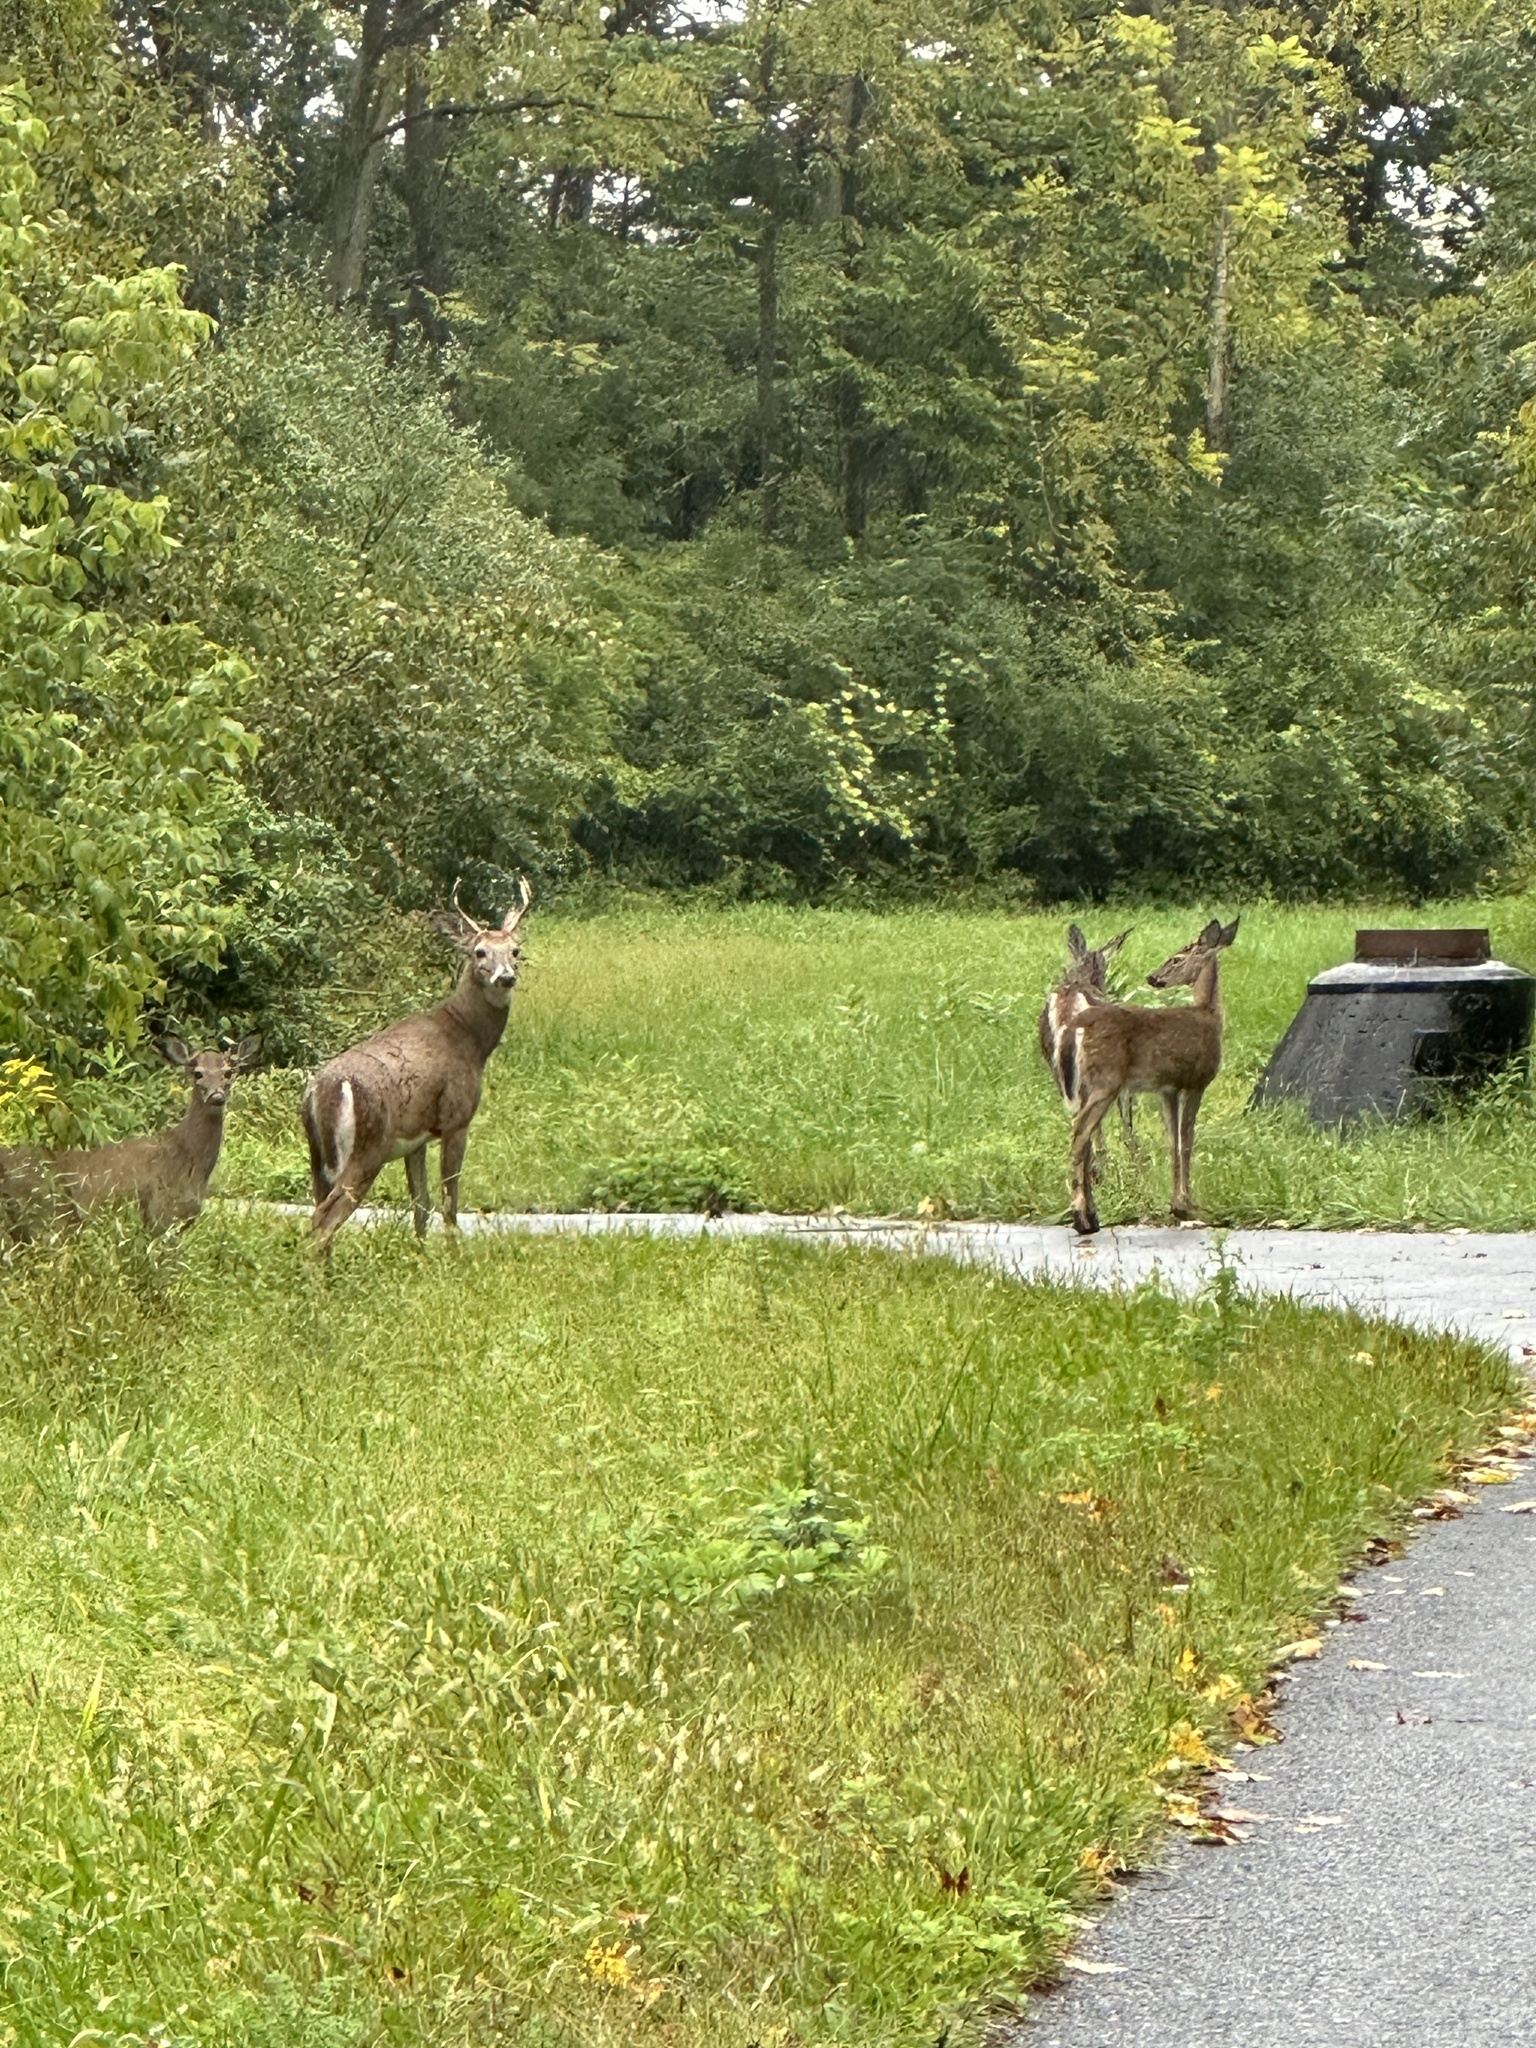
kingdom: Animalia
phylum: Chordata
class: Mammalia
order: Artiodactyla
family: Cervidae
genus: Odocoileus
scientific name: Odocoileus virginianus
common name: White-tailed deer
